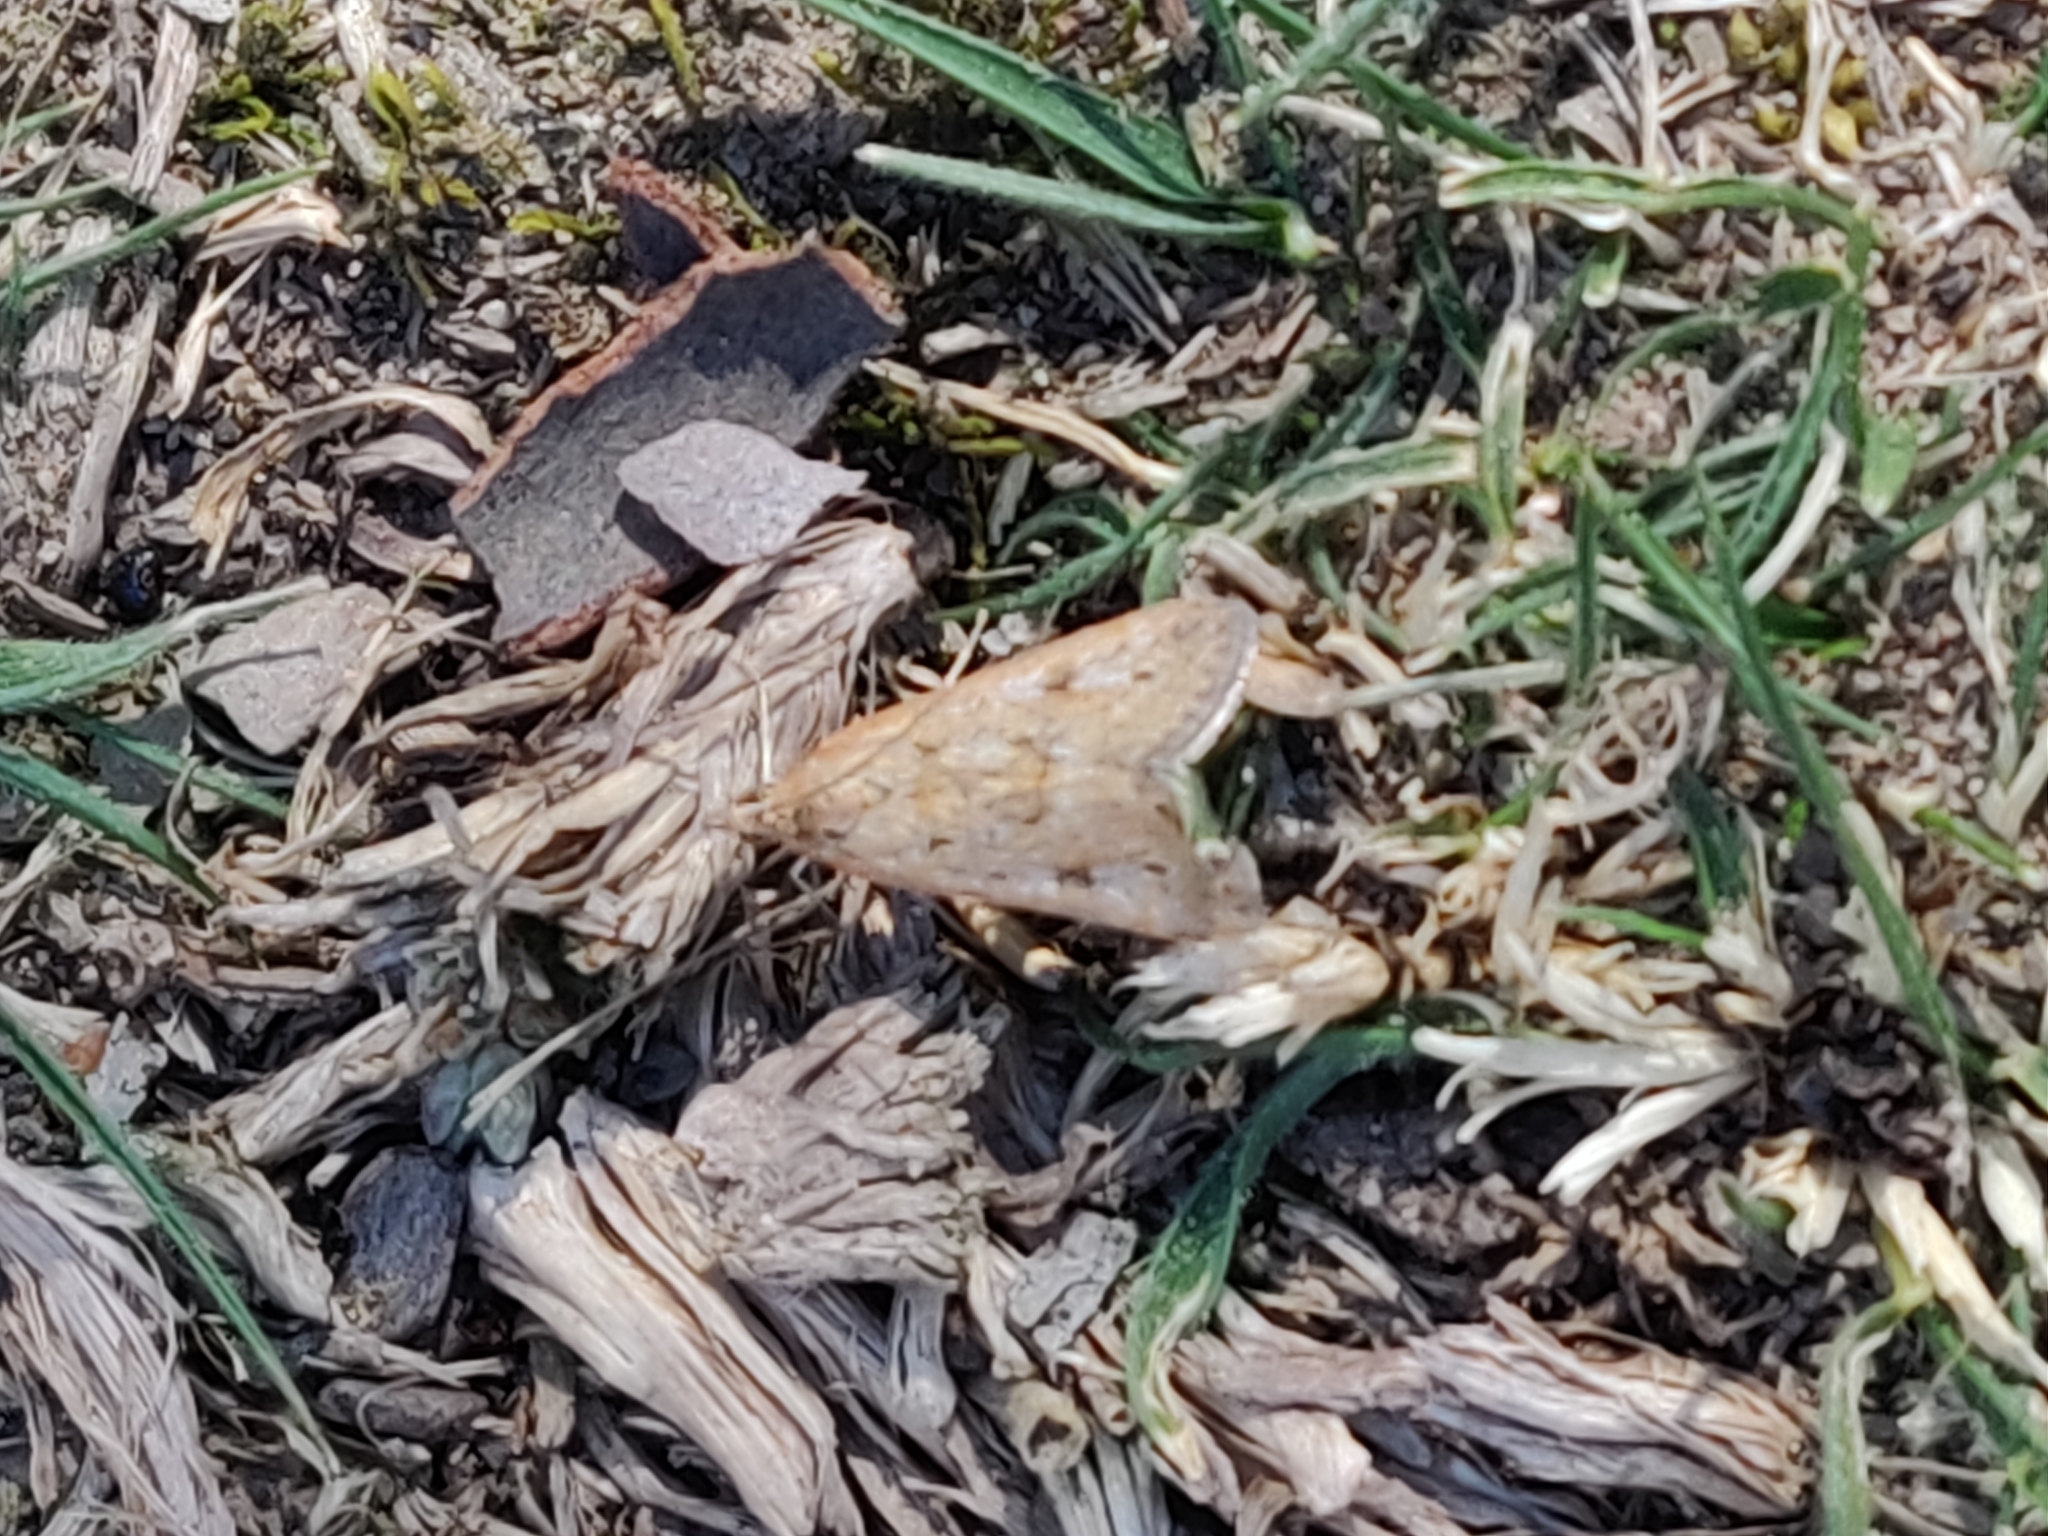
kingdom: Animalia
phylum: Arthropoda
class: Insecta
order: Lepidoptera
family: Crambidae
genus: Achyra
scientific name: Achyra affinitalis
